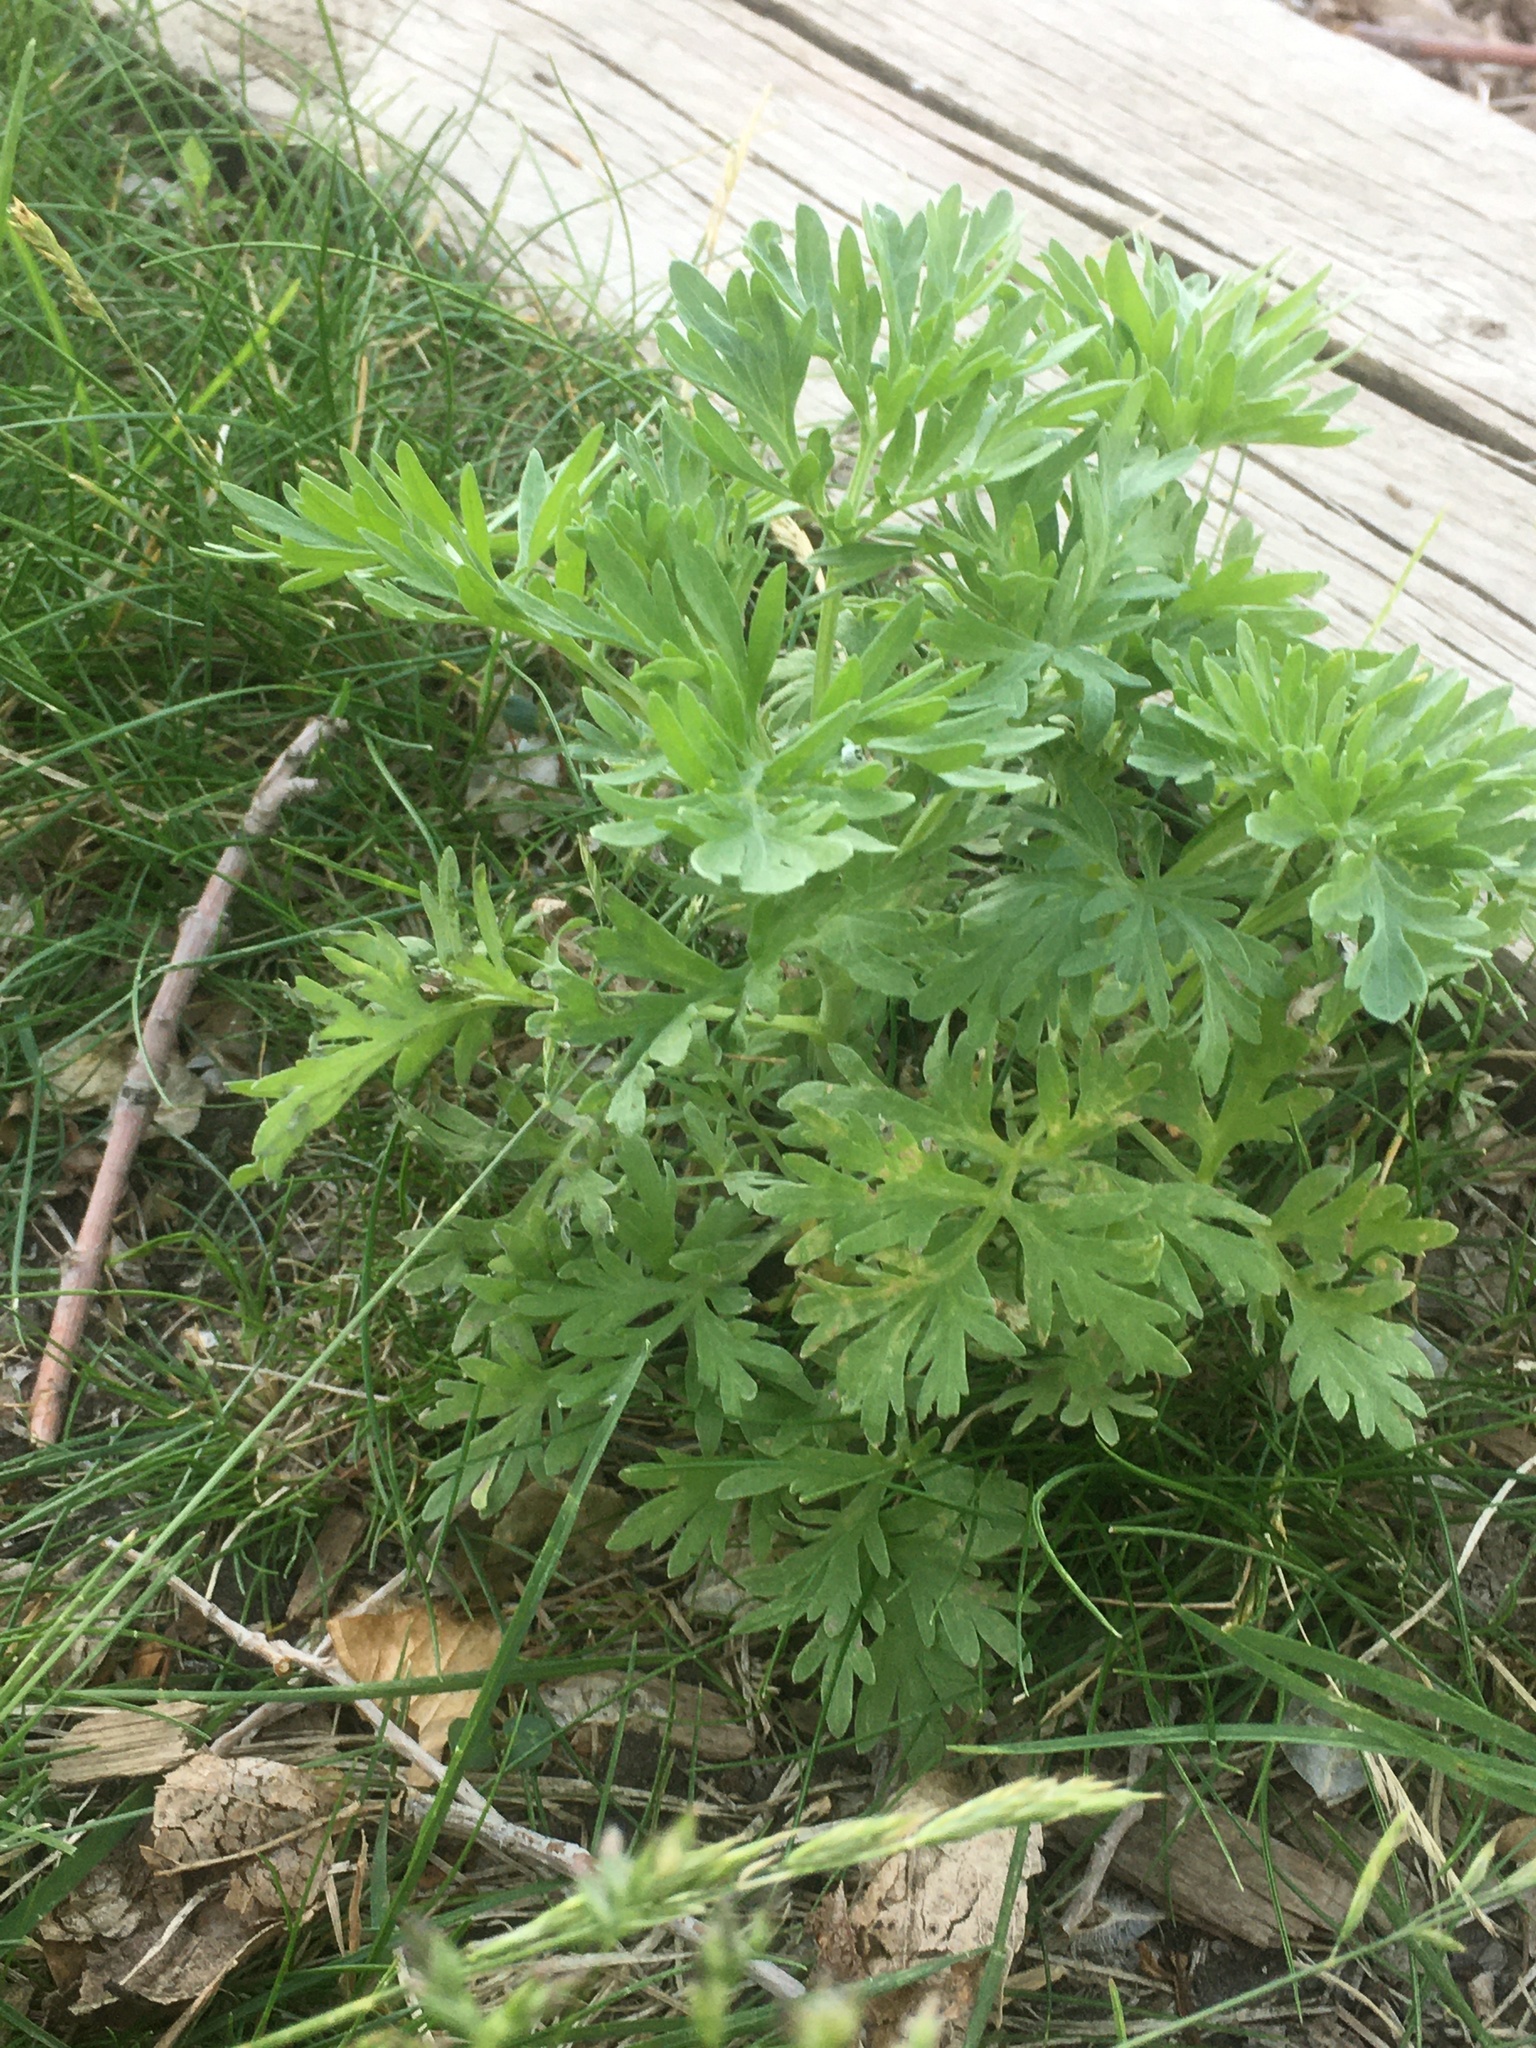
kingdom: Plantae
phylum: Tracheophyta
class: Magnoliopsida
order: Asterales
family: Asteraceae
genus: Artemisia
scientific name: Artemisia absinthium
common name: Wormwood
